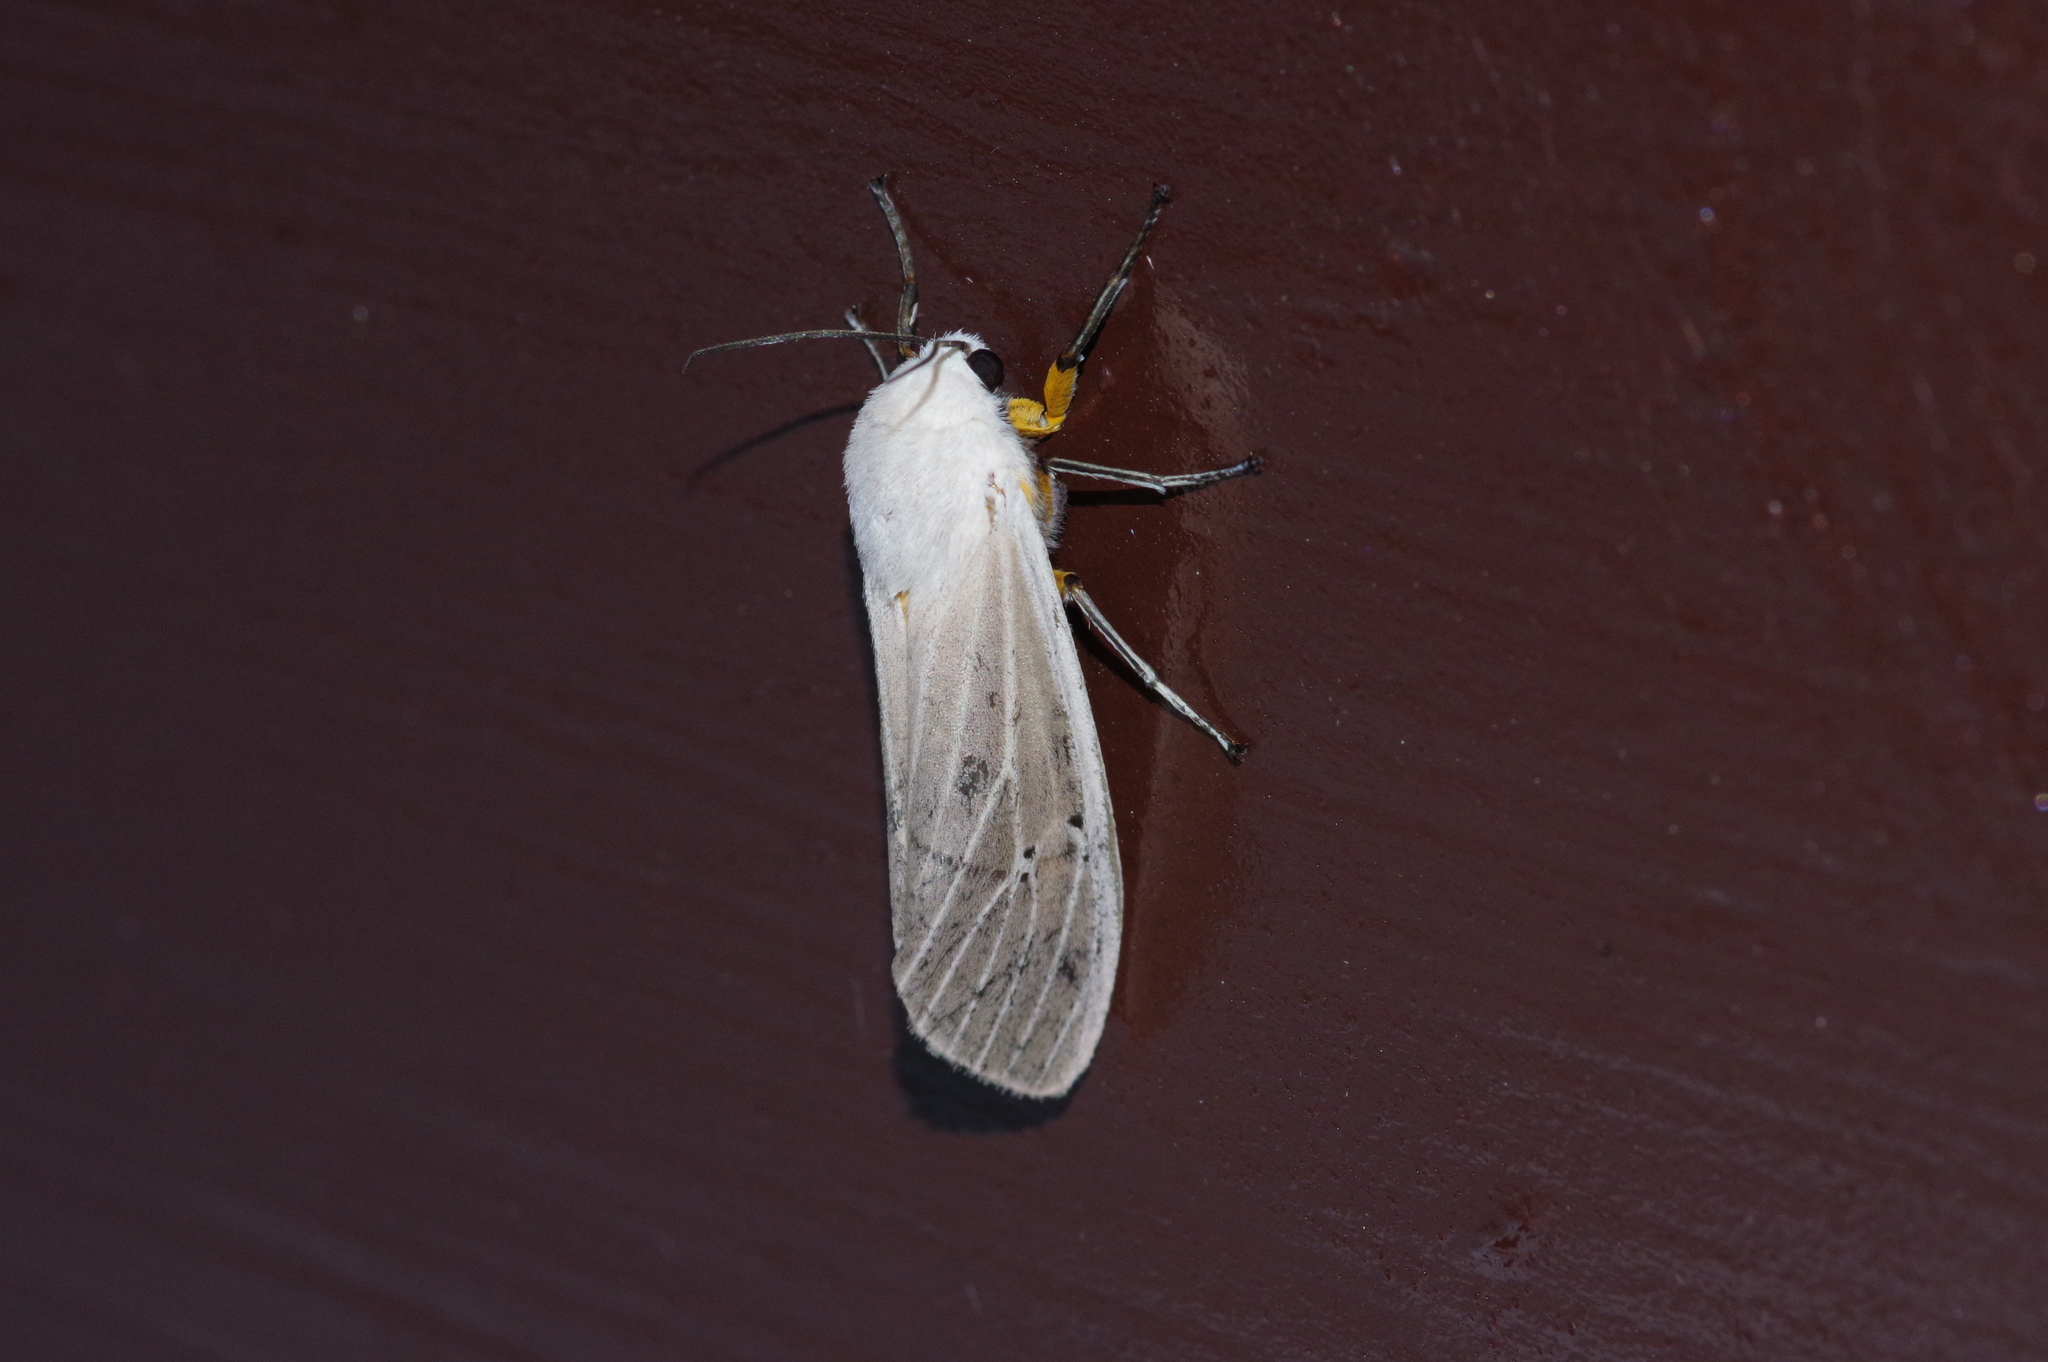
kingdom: Animalia
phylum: Arthropoda
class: Insecta
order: Lepidoptera
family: Erebidae
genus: Creatonotos
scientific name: Creatonotos transiens
